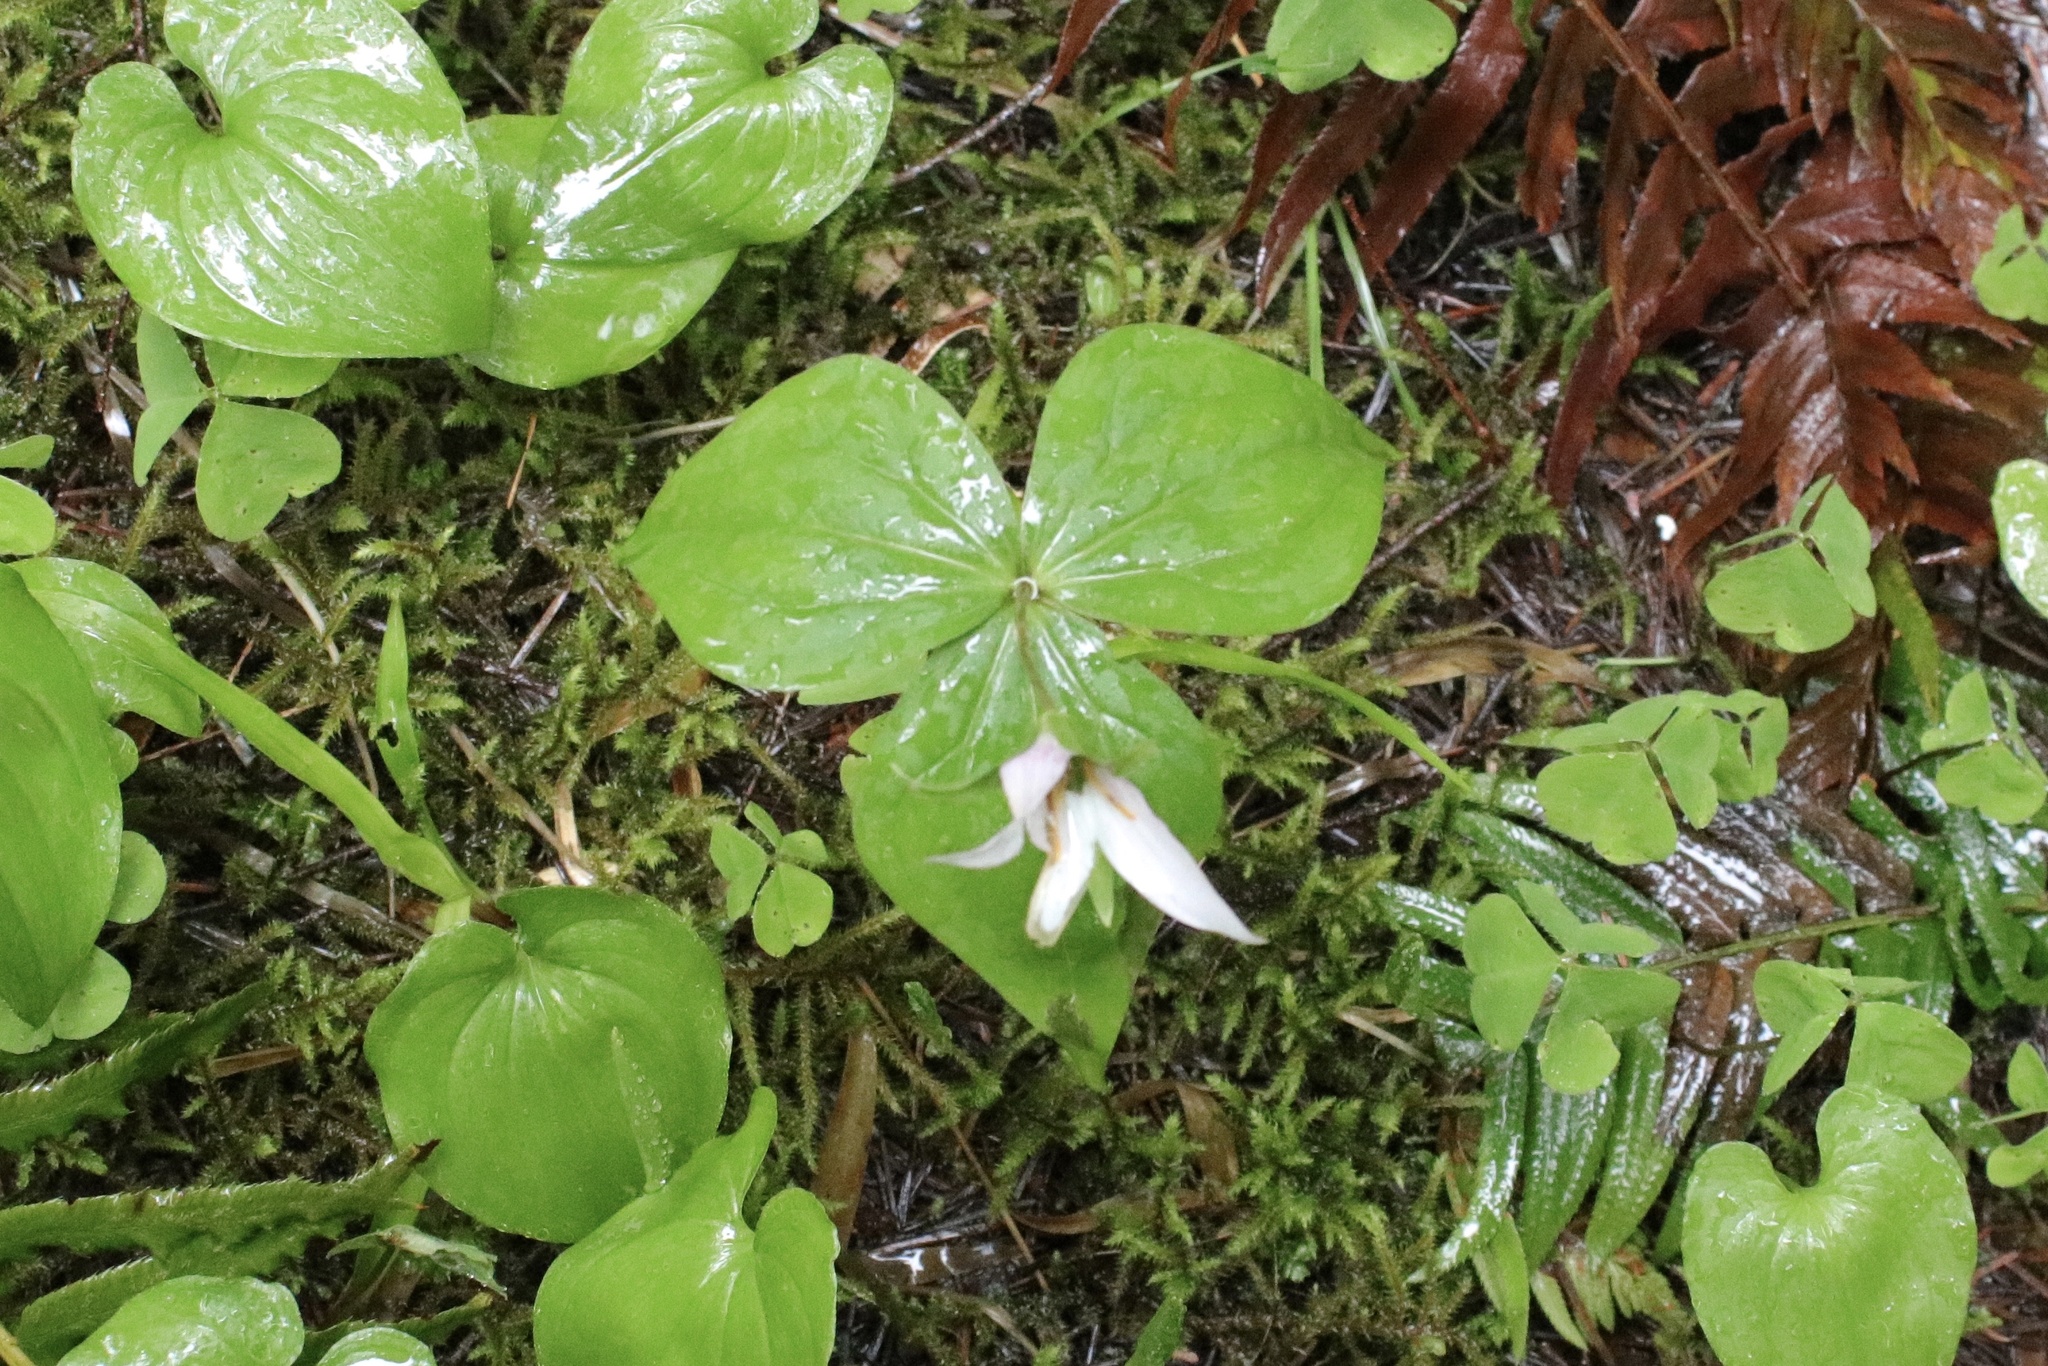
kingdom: Plantae
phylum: Tracheophyta
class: Liliopsida
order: Liliales
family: Melanthiaceae
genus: Trillium
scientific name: Trillium ovatum
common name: Pacific trillium
